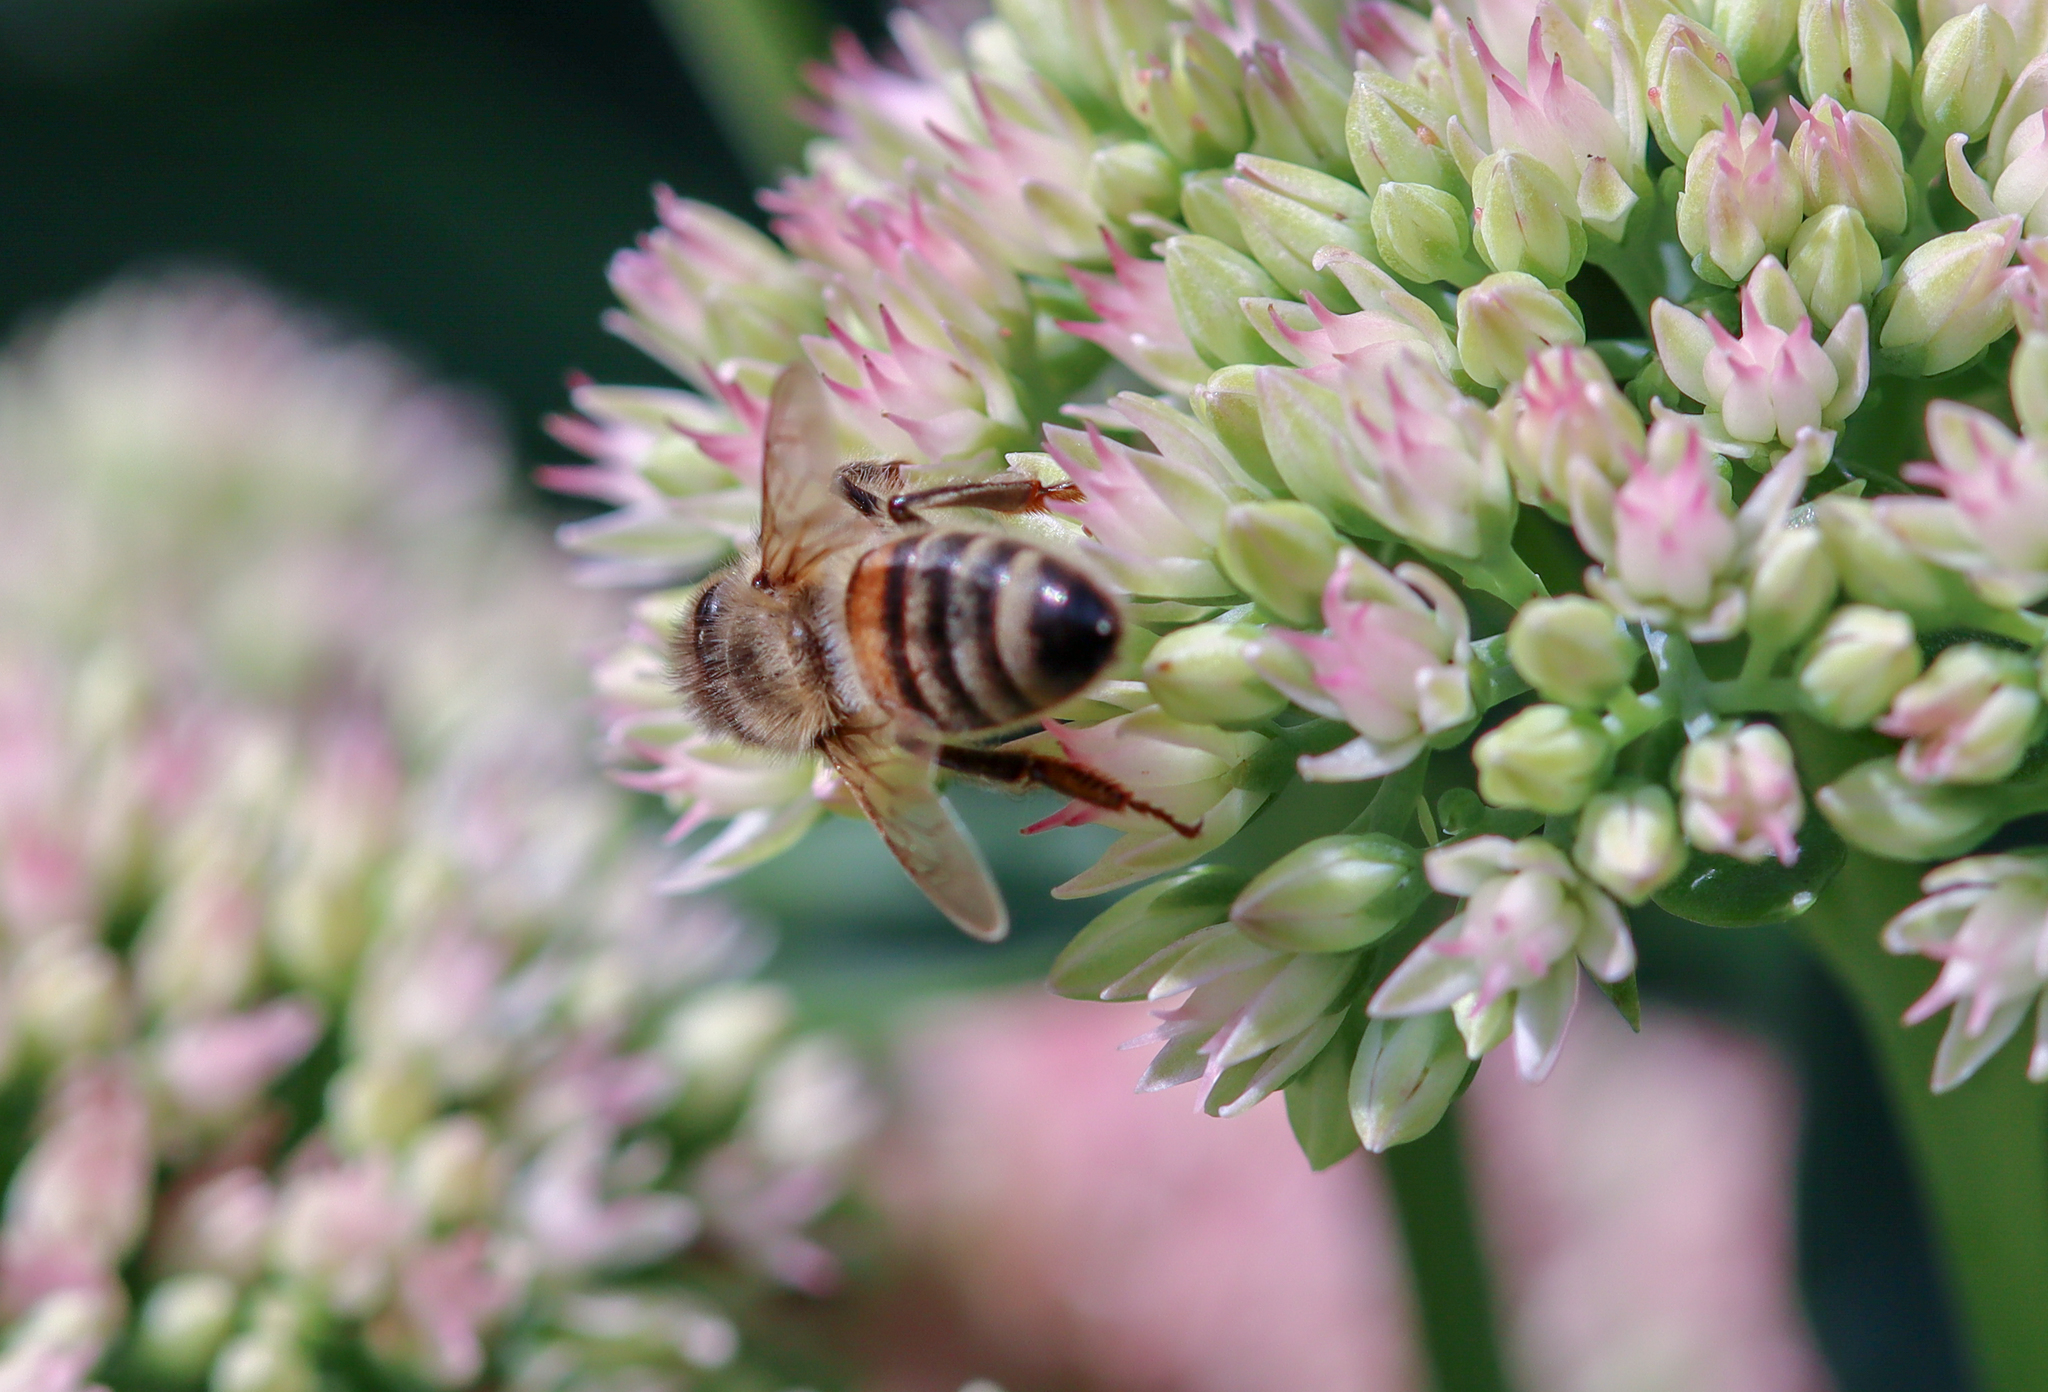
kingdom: Animalia
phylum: Arthropoda
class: Insecta
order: Hymenoptera
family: Apidae
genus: Apis
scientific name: Apis mellifera
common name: Honey bee
